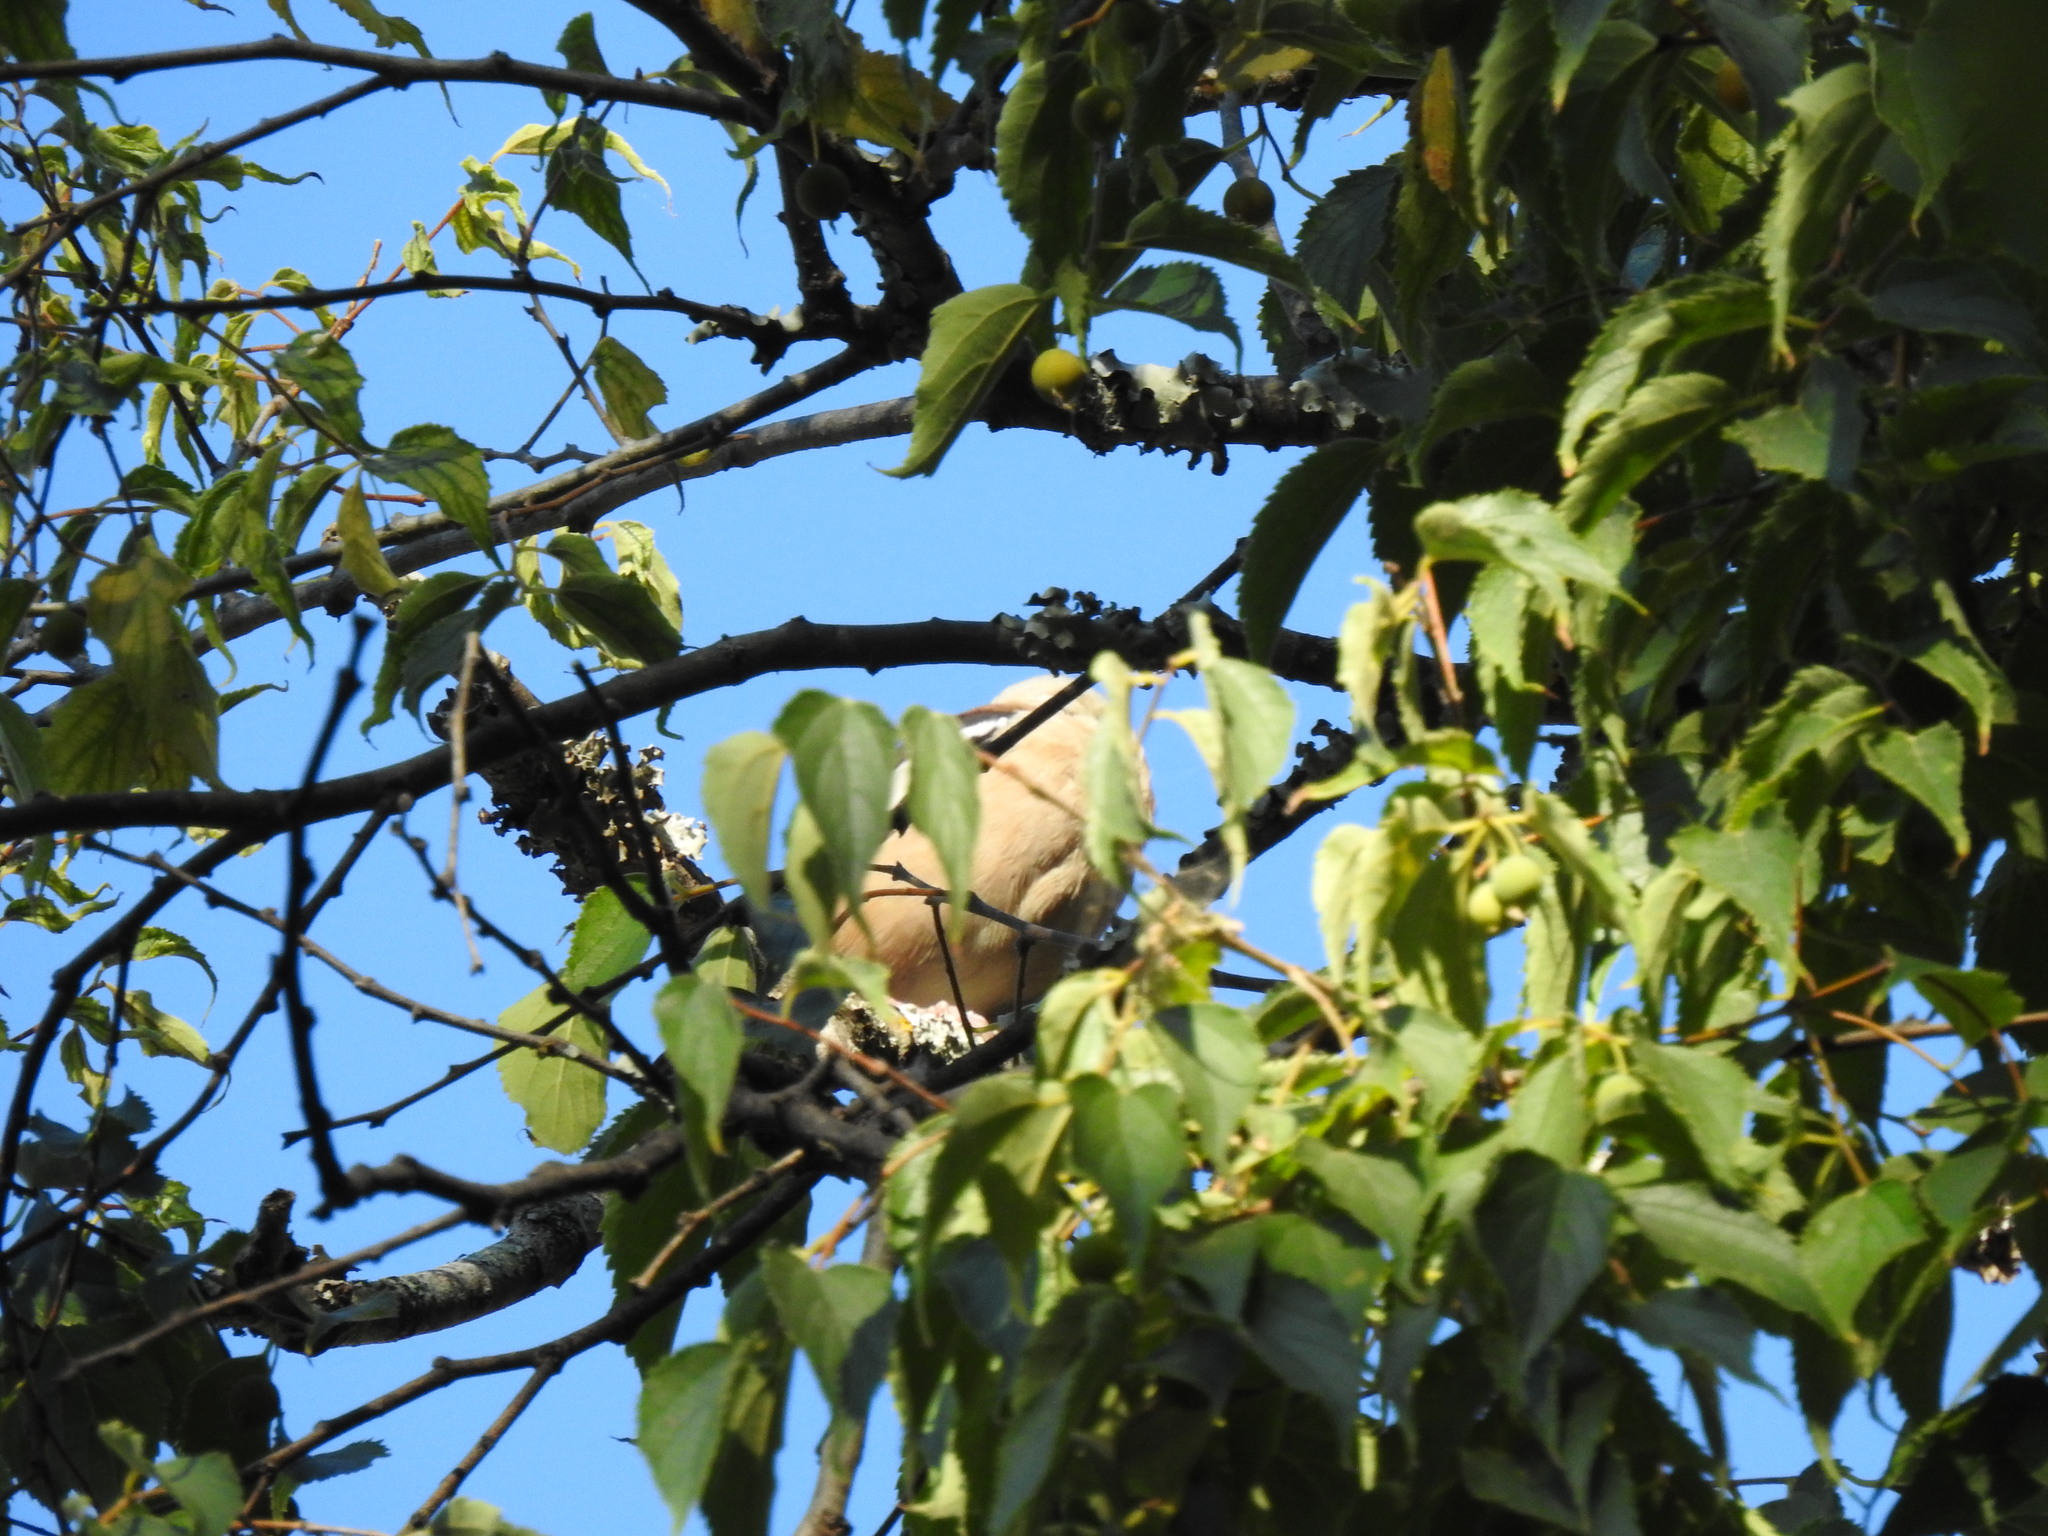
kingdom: Animalia
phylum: Chordata
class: Aves
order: Passeriformes
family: Fringillidae
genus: Coccothraustes
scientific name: Coccothraustes coccothraustes
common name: Hawfinch
